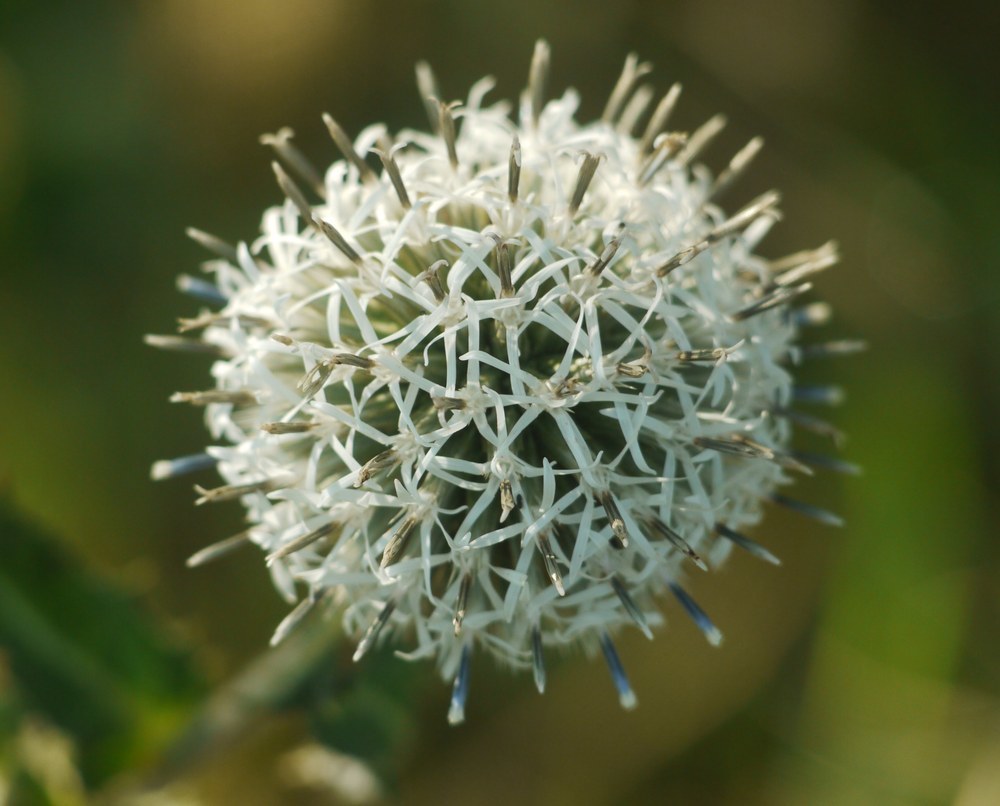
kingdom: Plantae
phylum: Tracheophyta
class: Magnoliopsida
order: Asterales
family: Asteraceae
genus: Echinops
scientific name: Echinops sphaerocephalus
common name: Glandular globe-thistle
